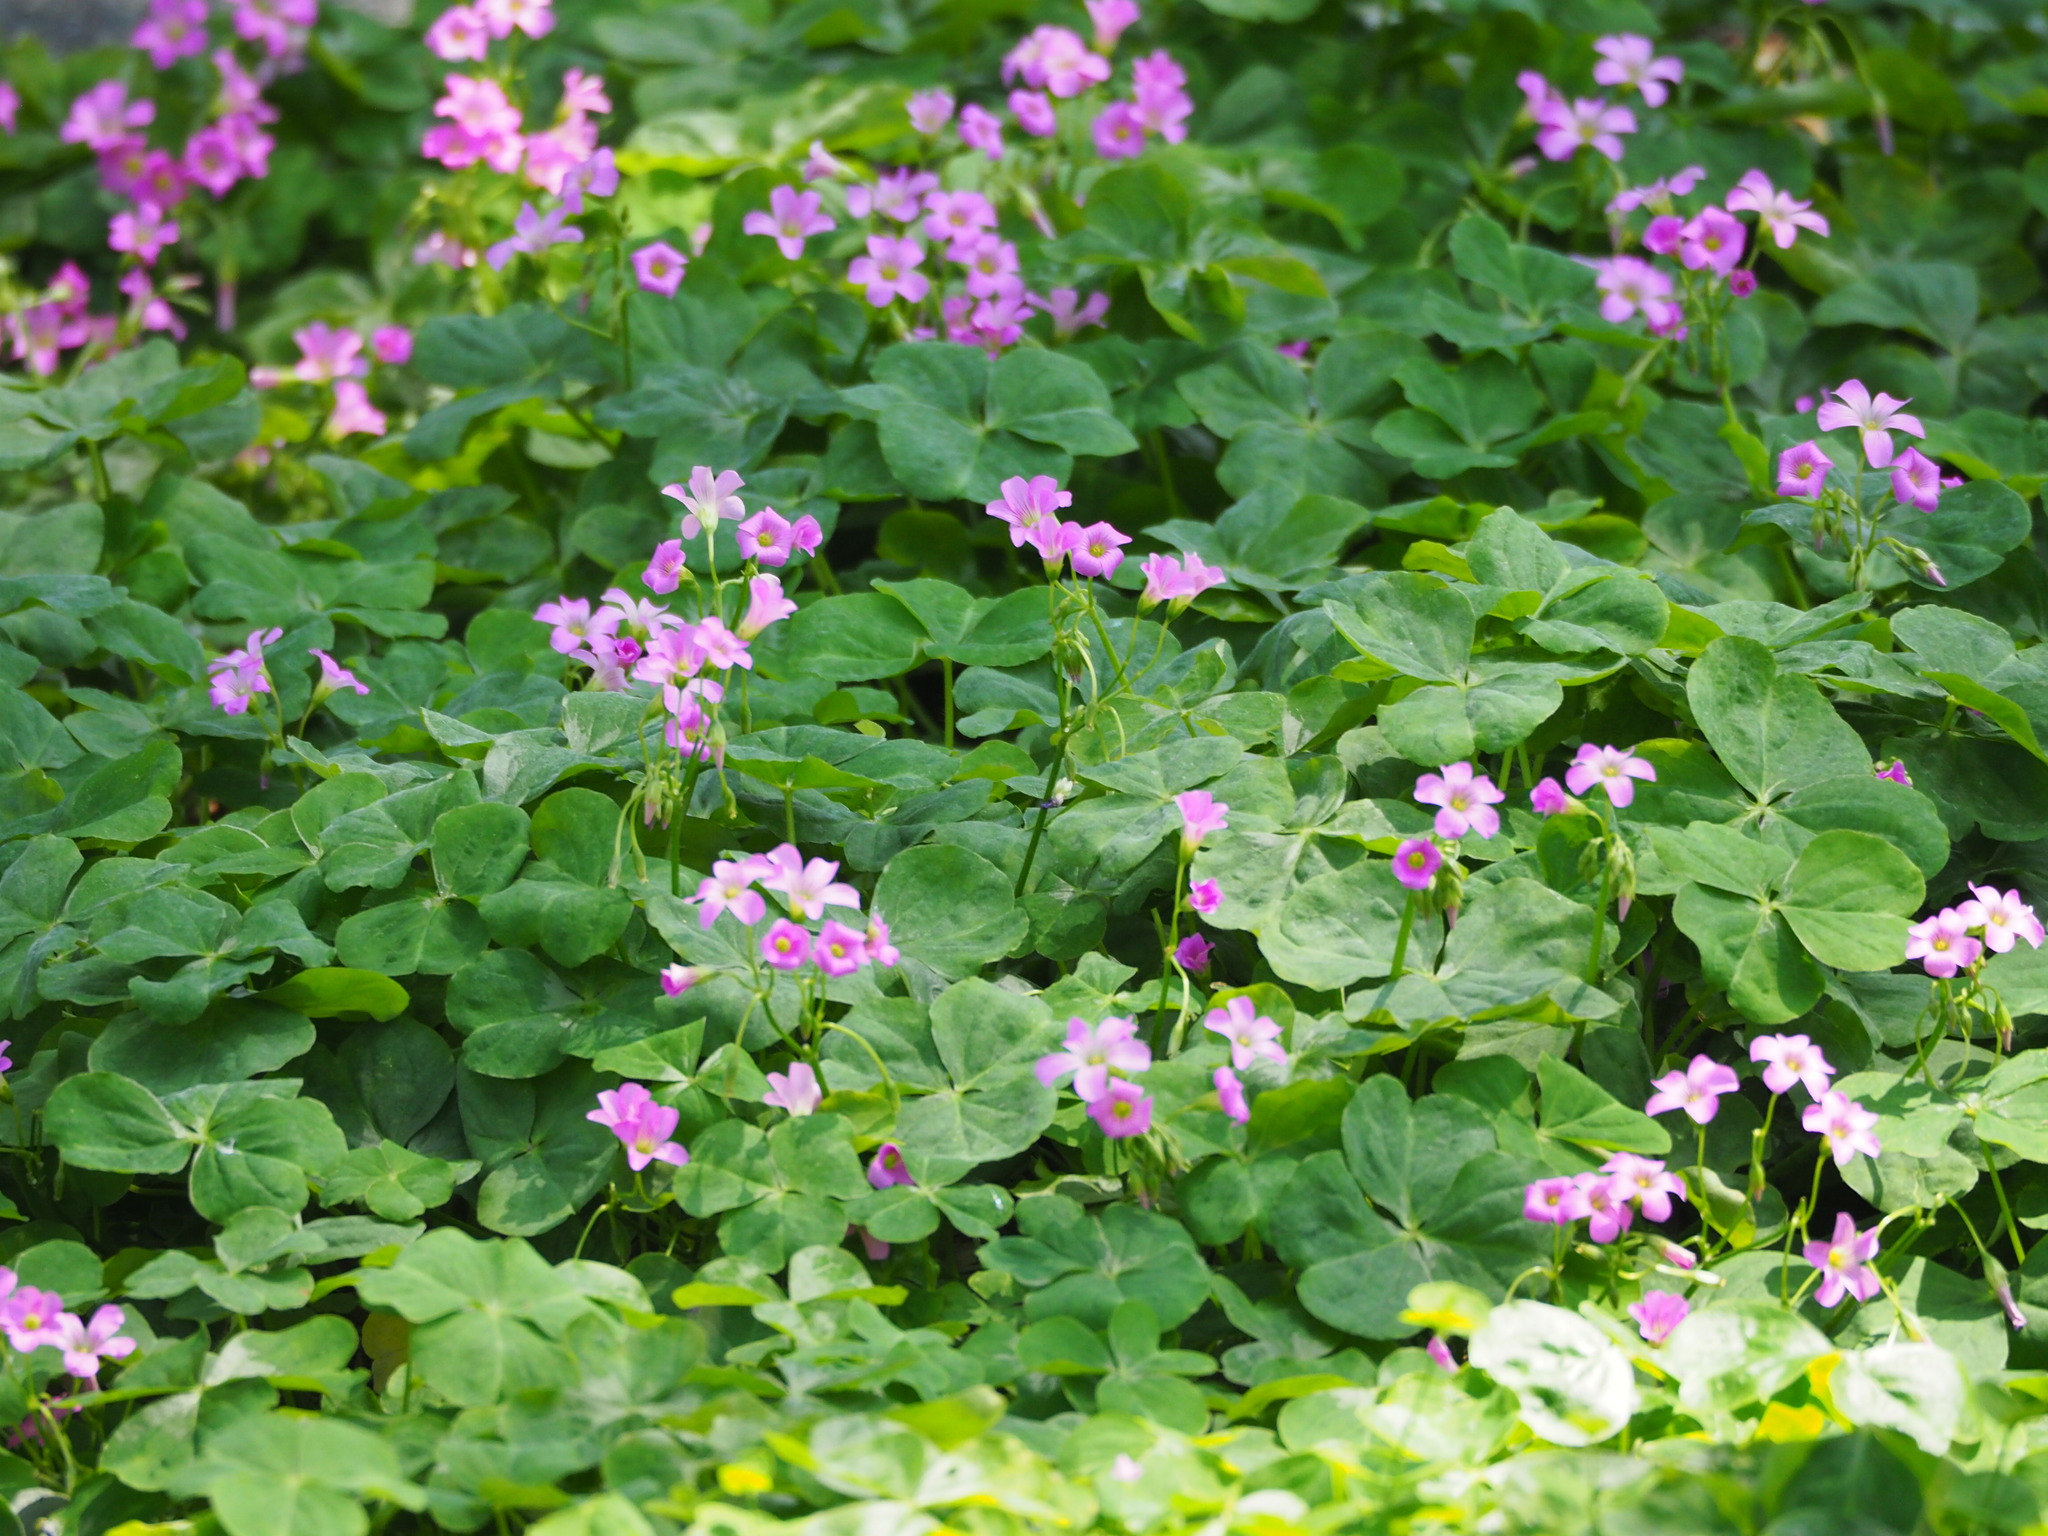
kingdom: Plantae
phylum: Tracheophyta
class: Magnoliopsida
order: Oxalidales
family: Oxalidaceae
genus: Oxalis
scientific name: Oxalis debilis
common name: Large-flowered pink-sorrel
